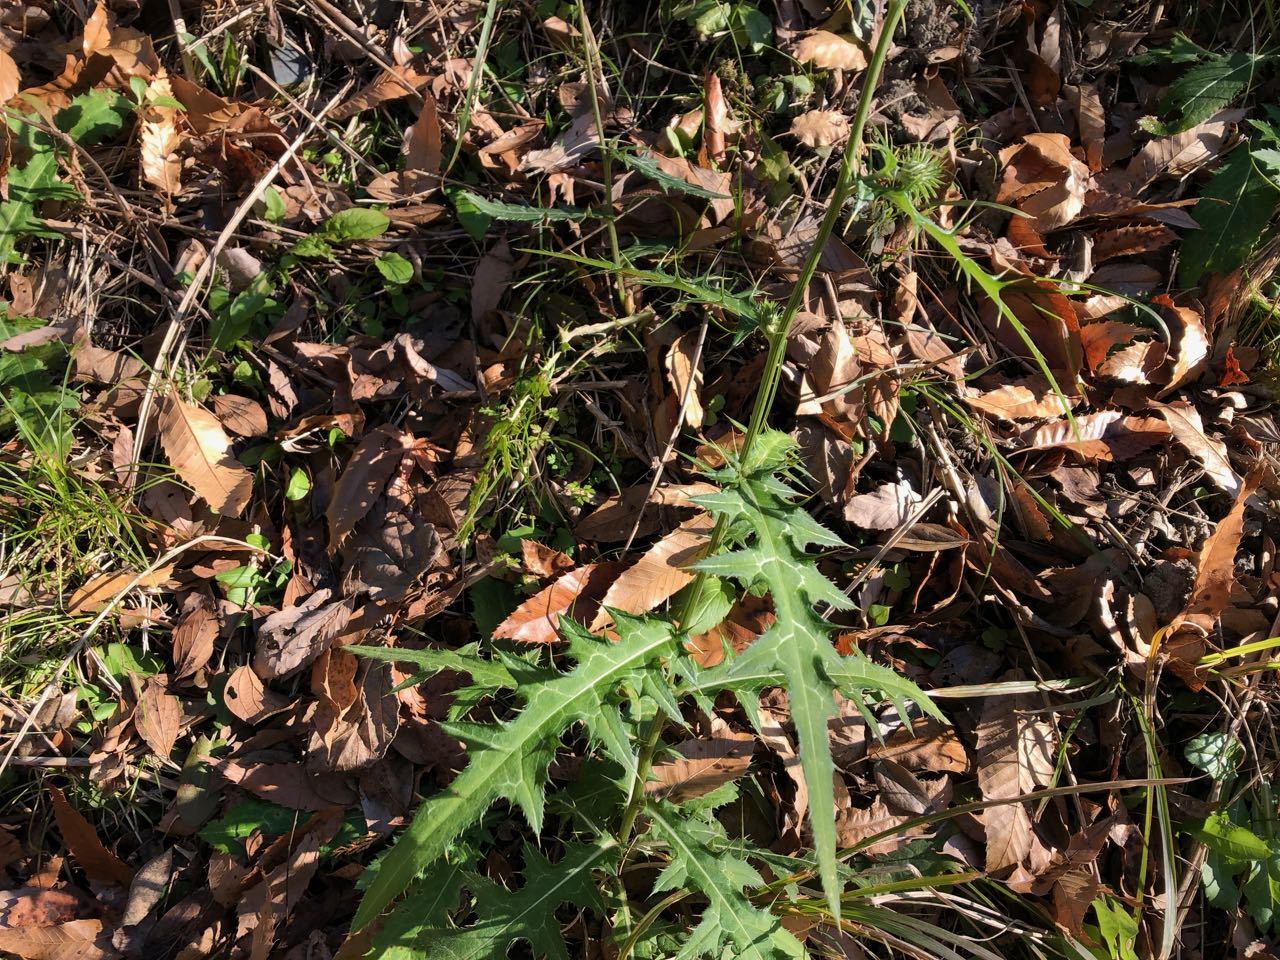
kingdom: Plantae
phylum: Tracheophyta
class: Magnoliopsida
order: Asterales
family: Asteraceae
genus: Cirsium
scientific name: Cirsium nipponicum
